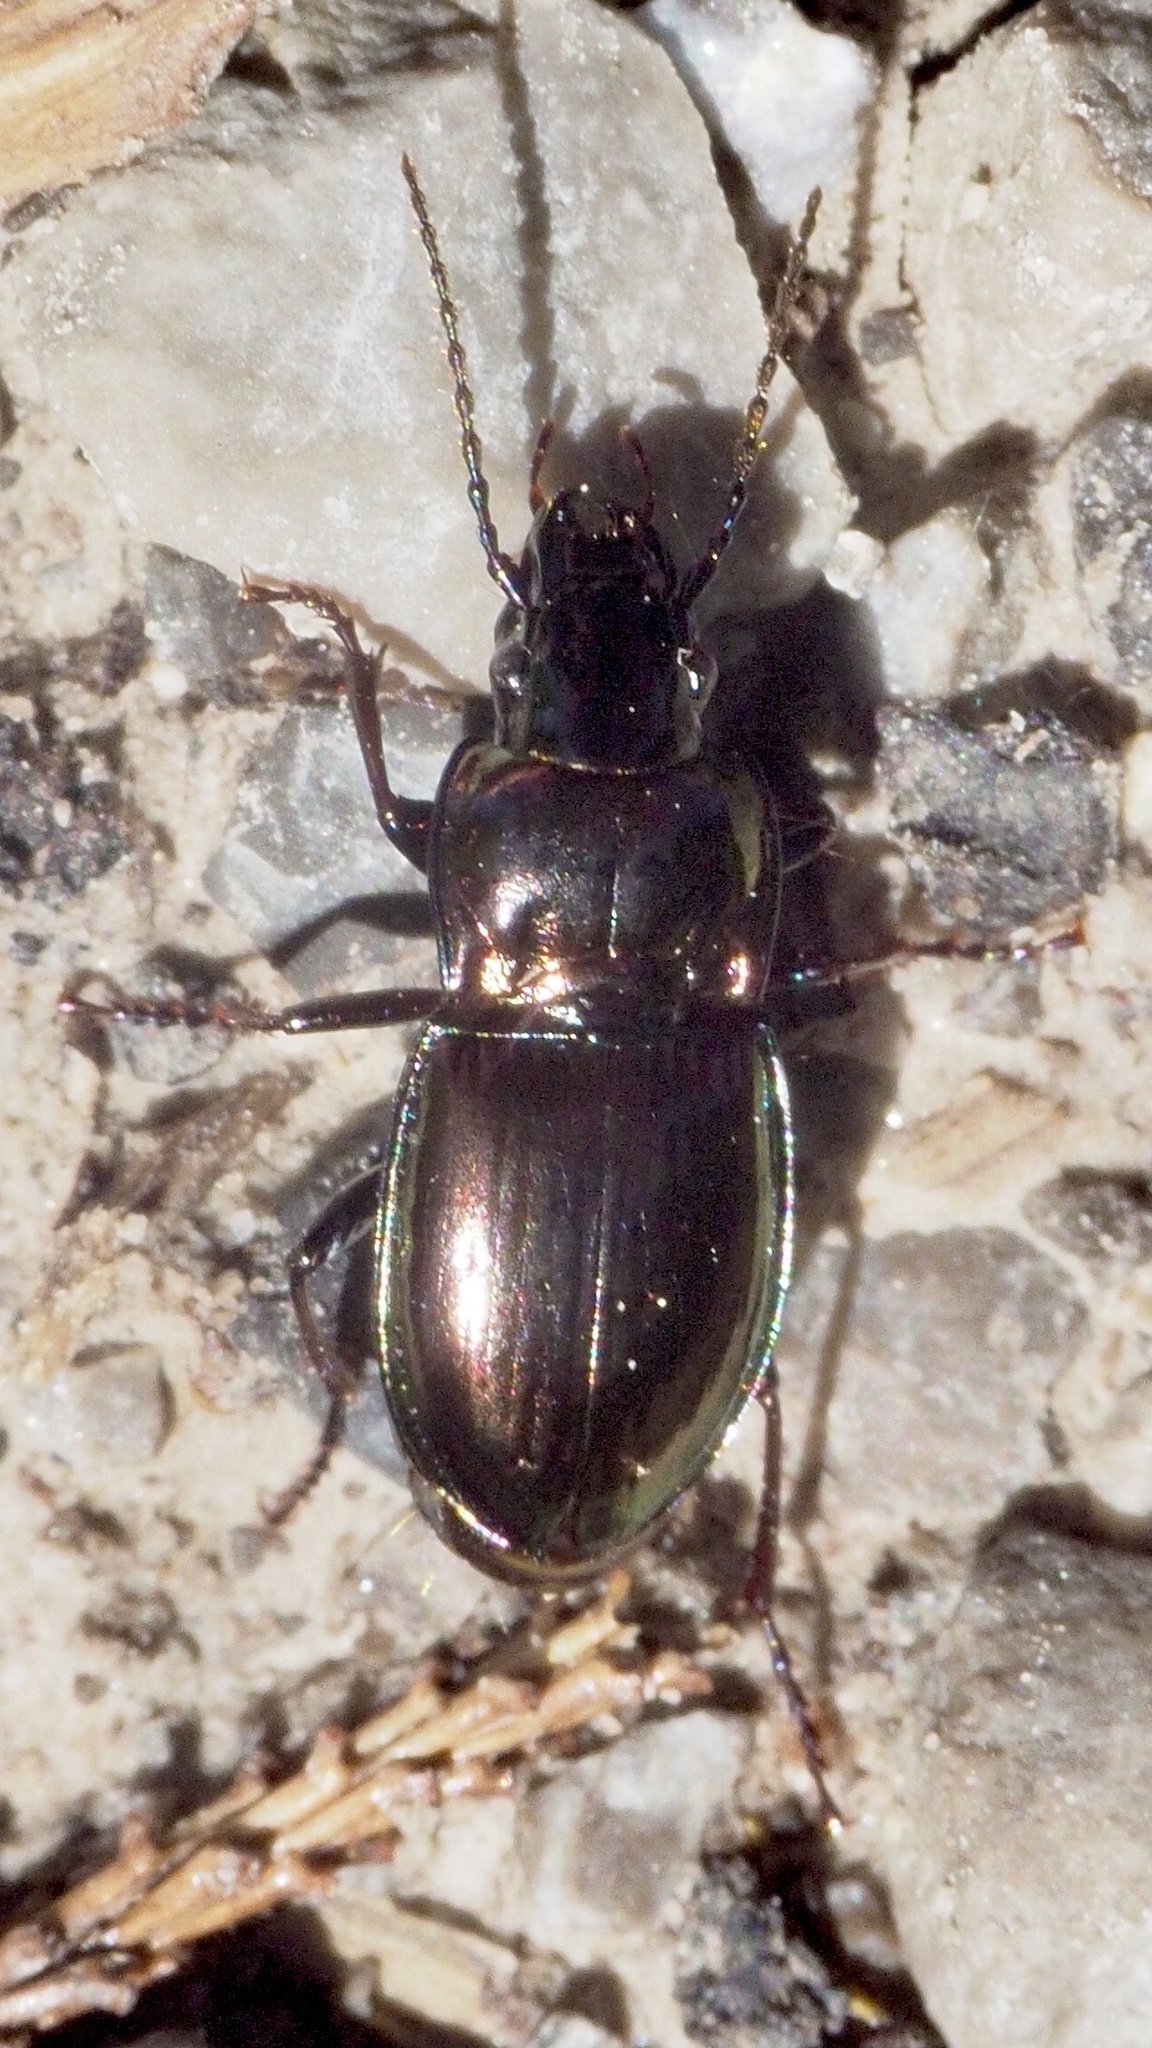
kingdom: Animalia
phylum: Arthropoda
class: Insecta
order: Coleoptera
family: Carabidae
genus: Pterostichus
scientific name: Pterostichus burmeisteri
